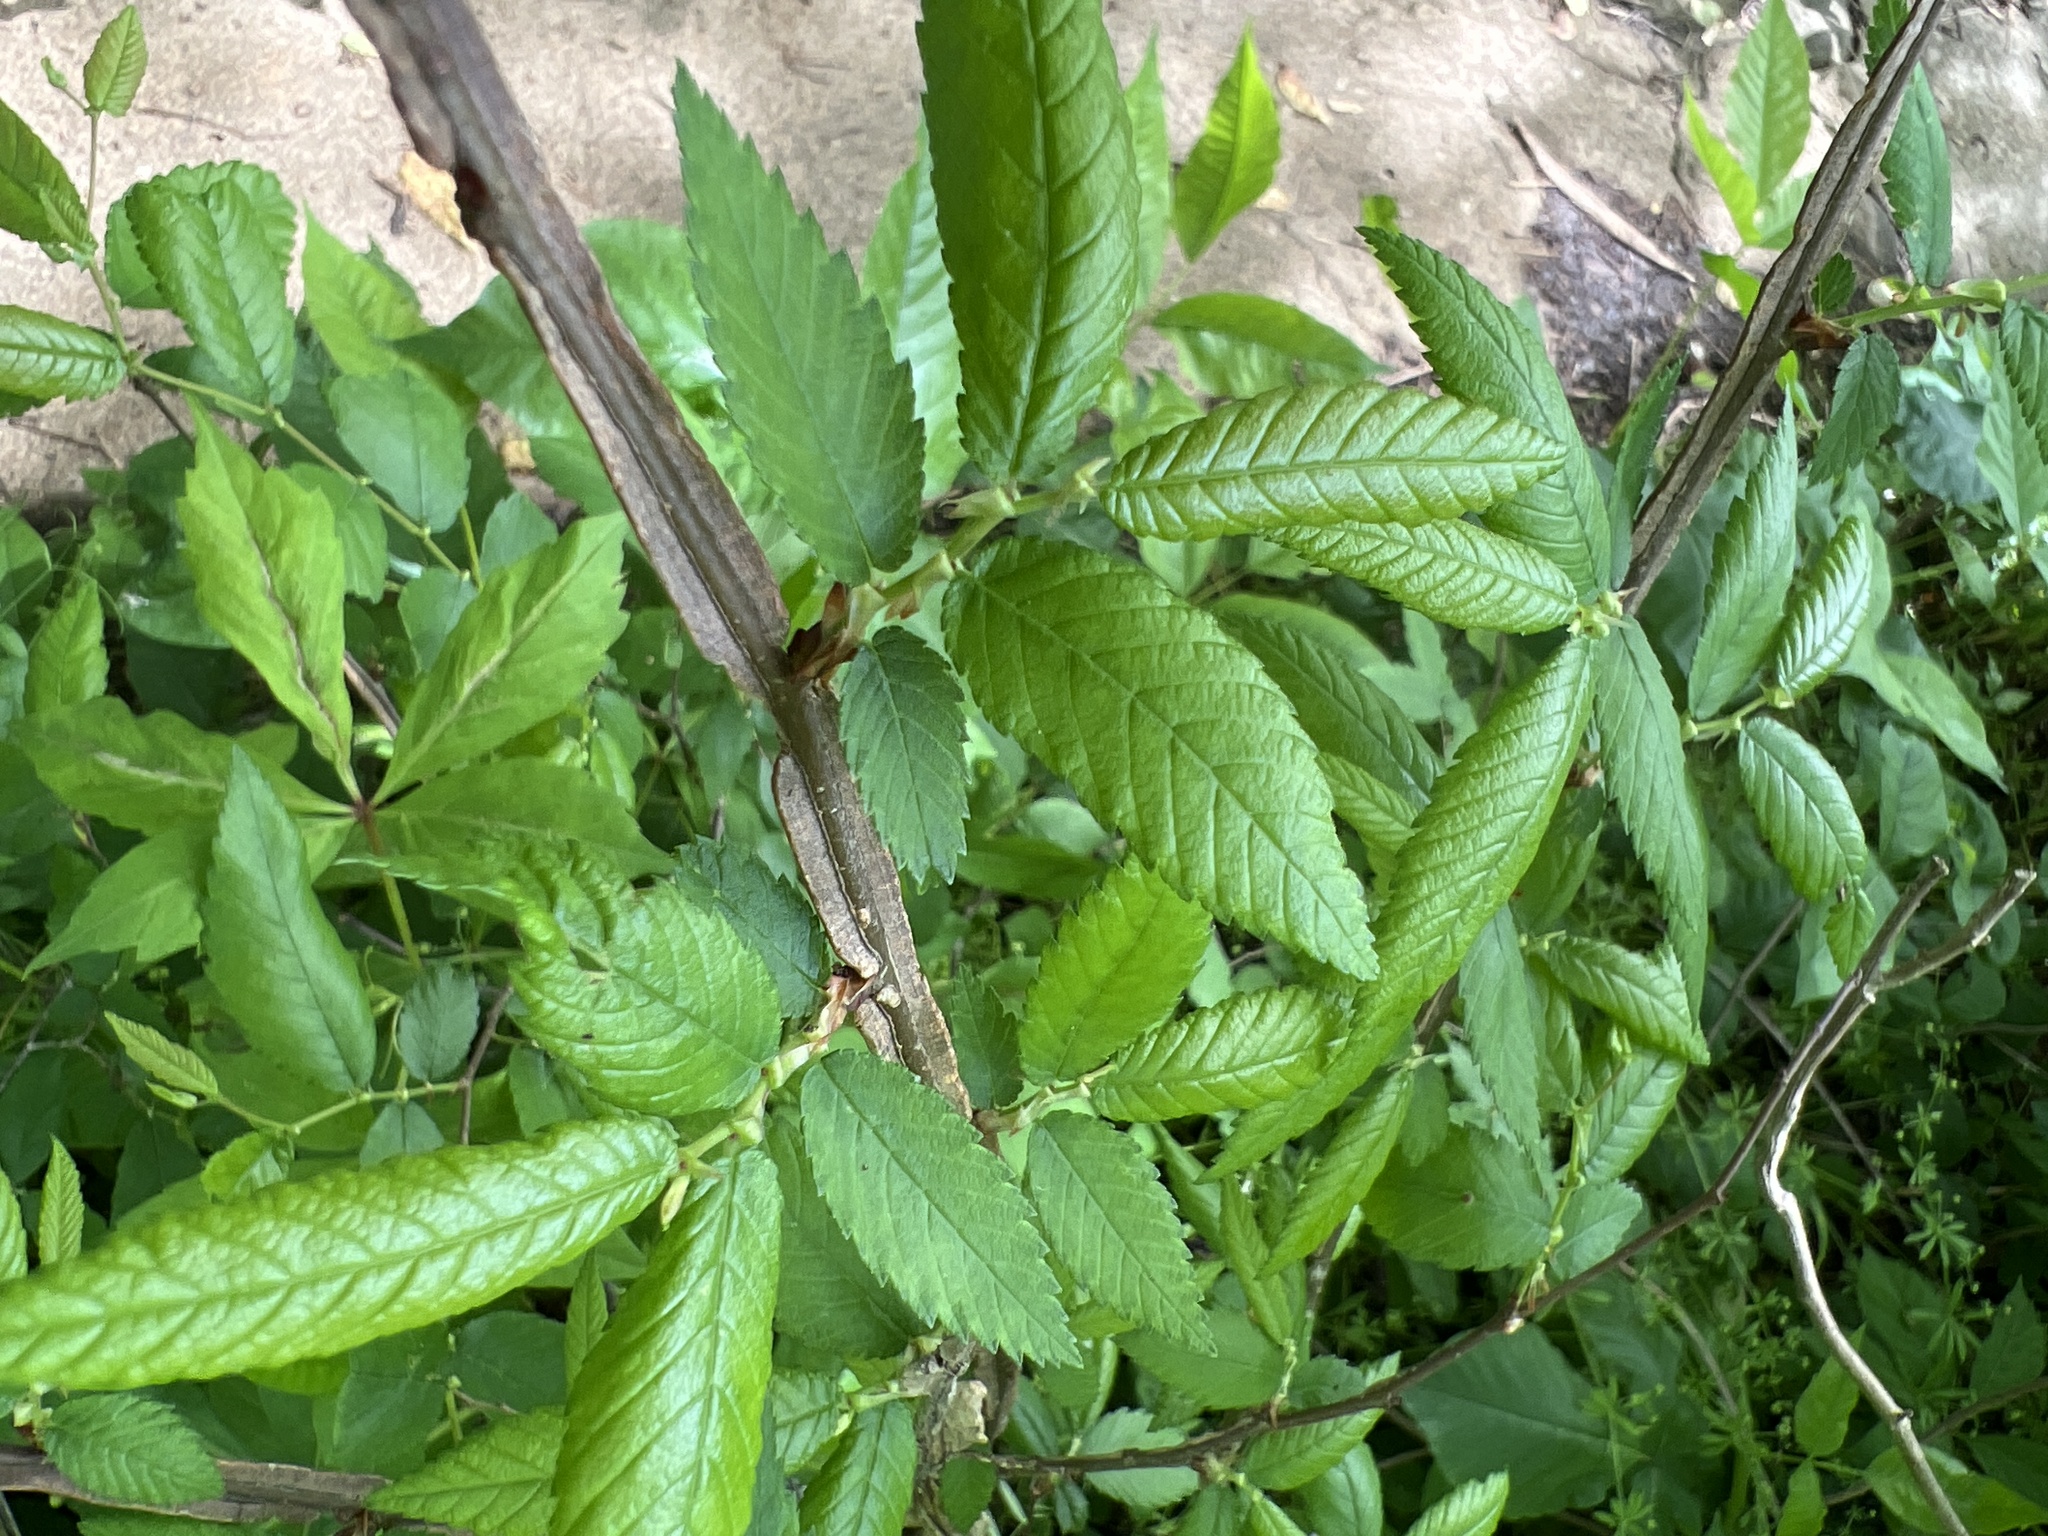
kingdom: Plantae
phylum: Tracheophyta
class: Magnoliopsida
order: Rosales
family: Ulmaceae
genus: Ulmus
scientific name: Ulmus alata
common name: Winged elm
